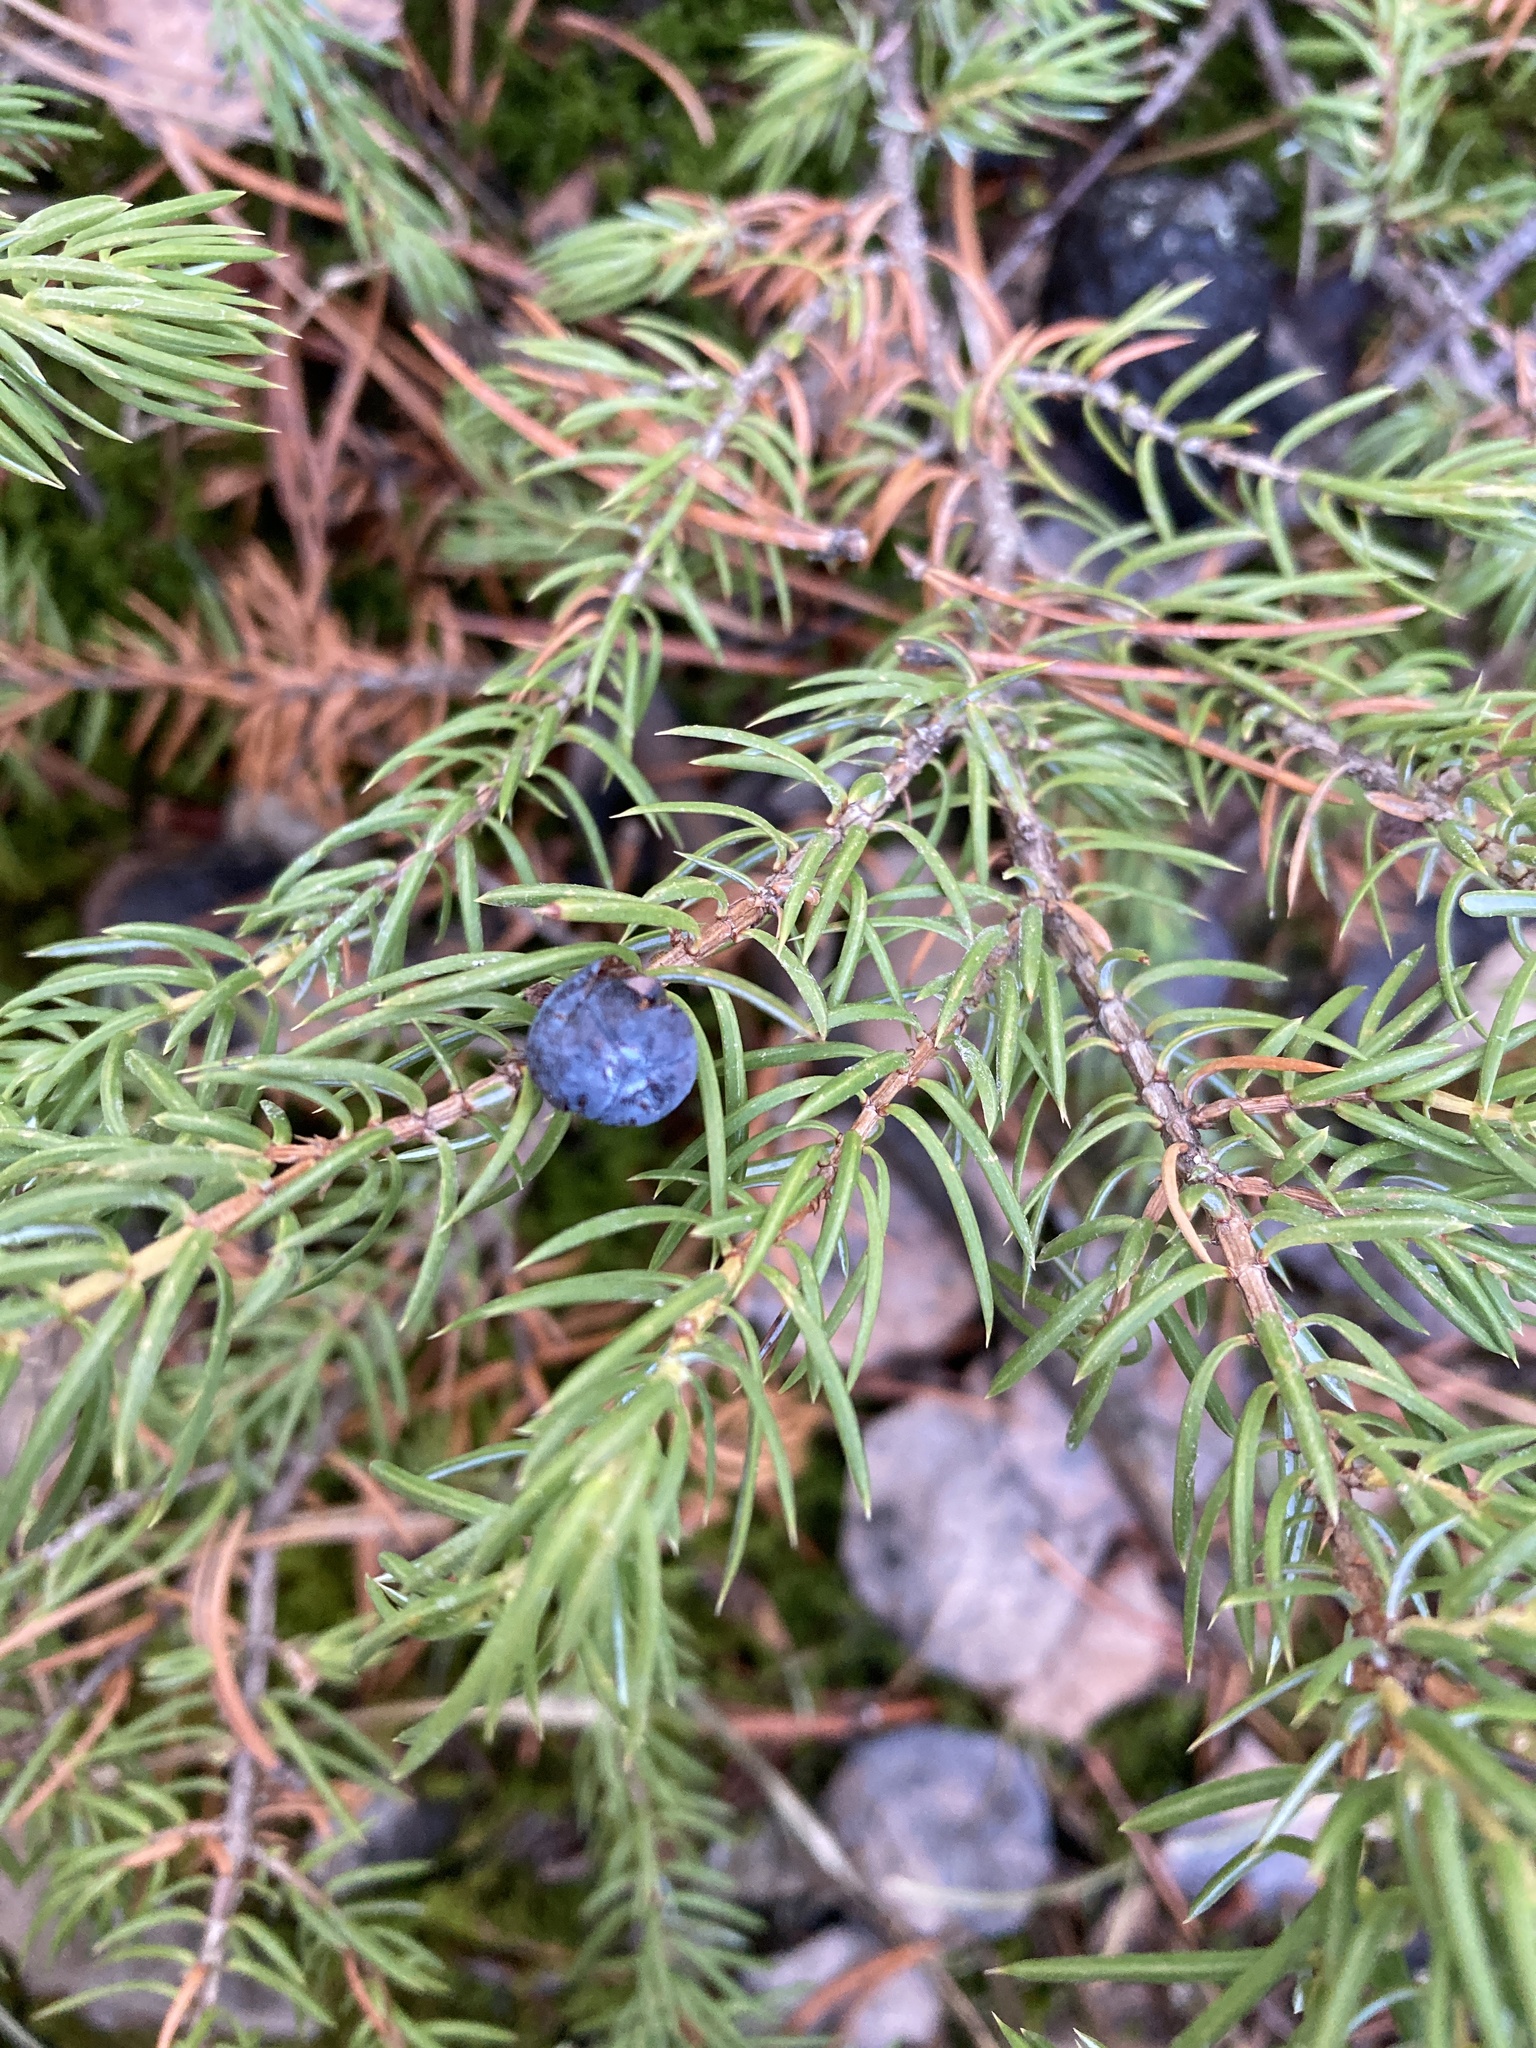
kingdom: Plantae
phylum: Tracheophyta
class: Pinopsida
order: Pinales
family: Cupressaceae
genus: Juniperus
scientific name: Juniperus communis
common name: Common juniper
